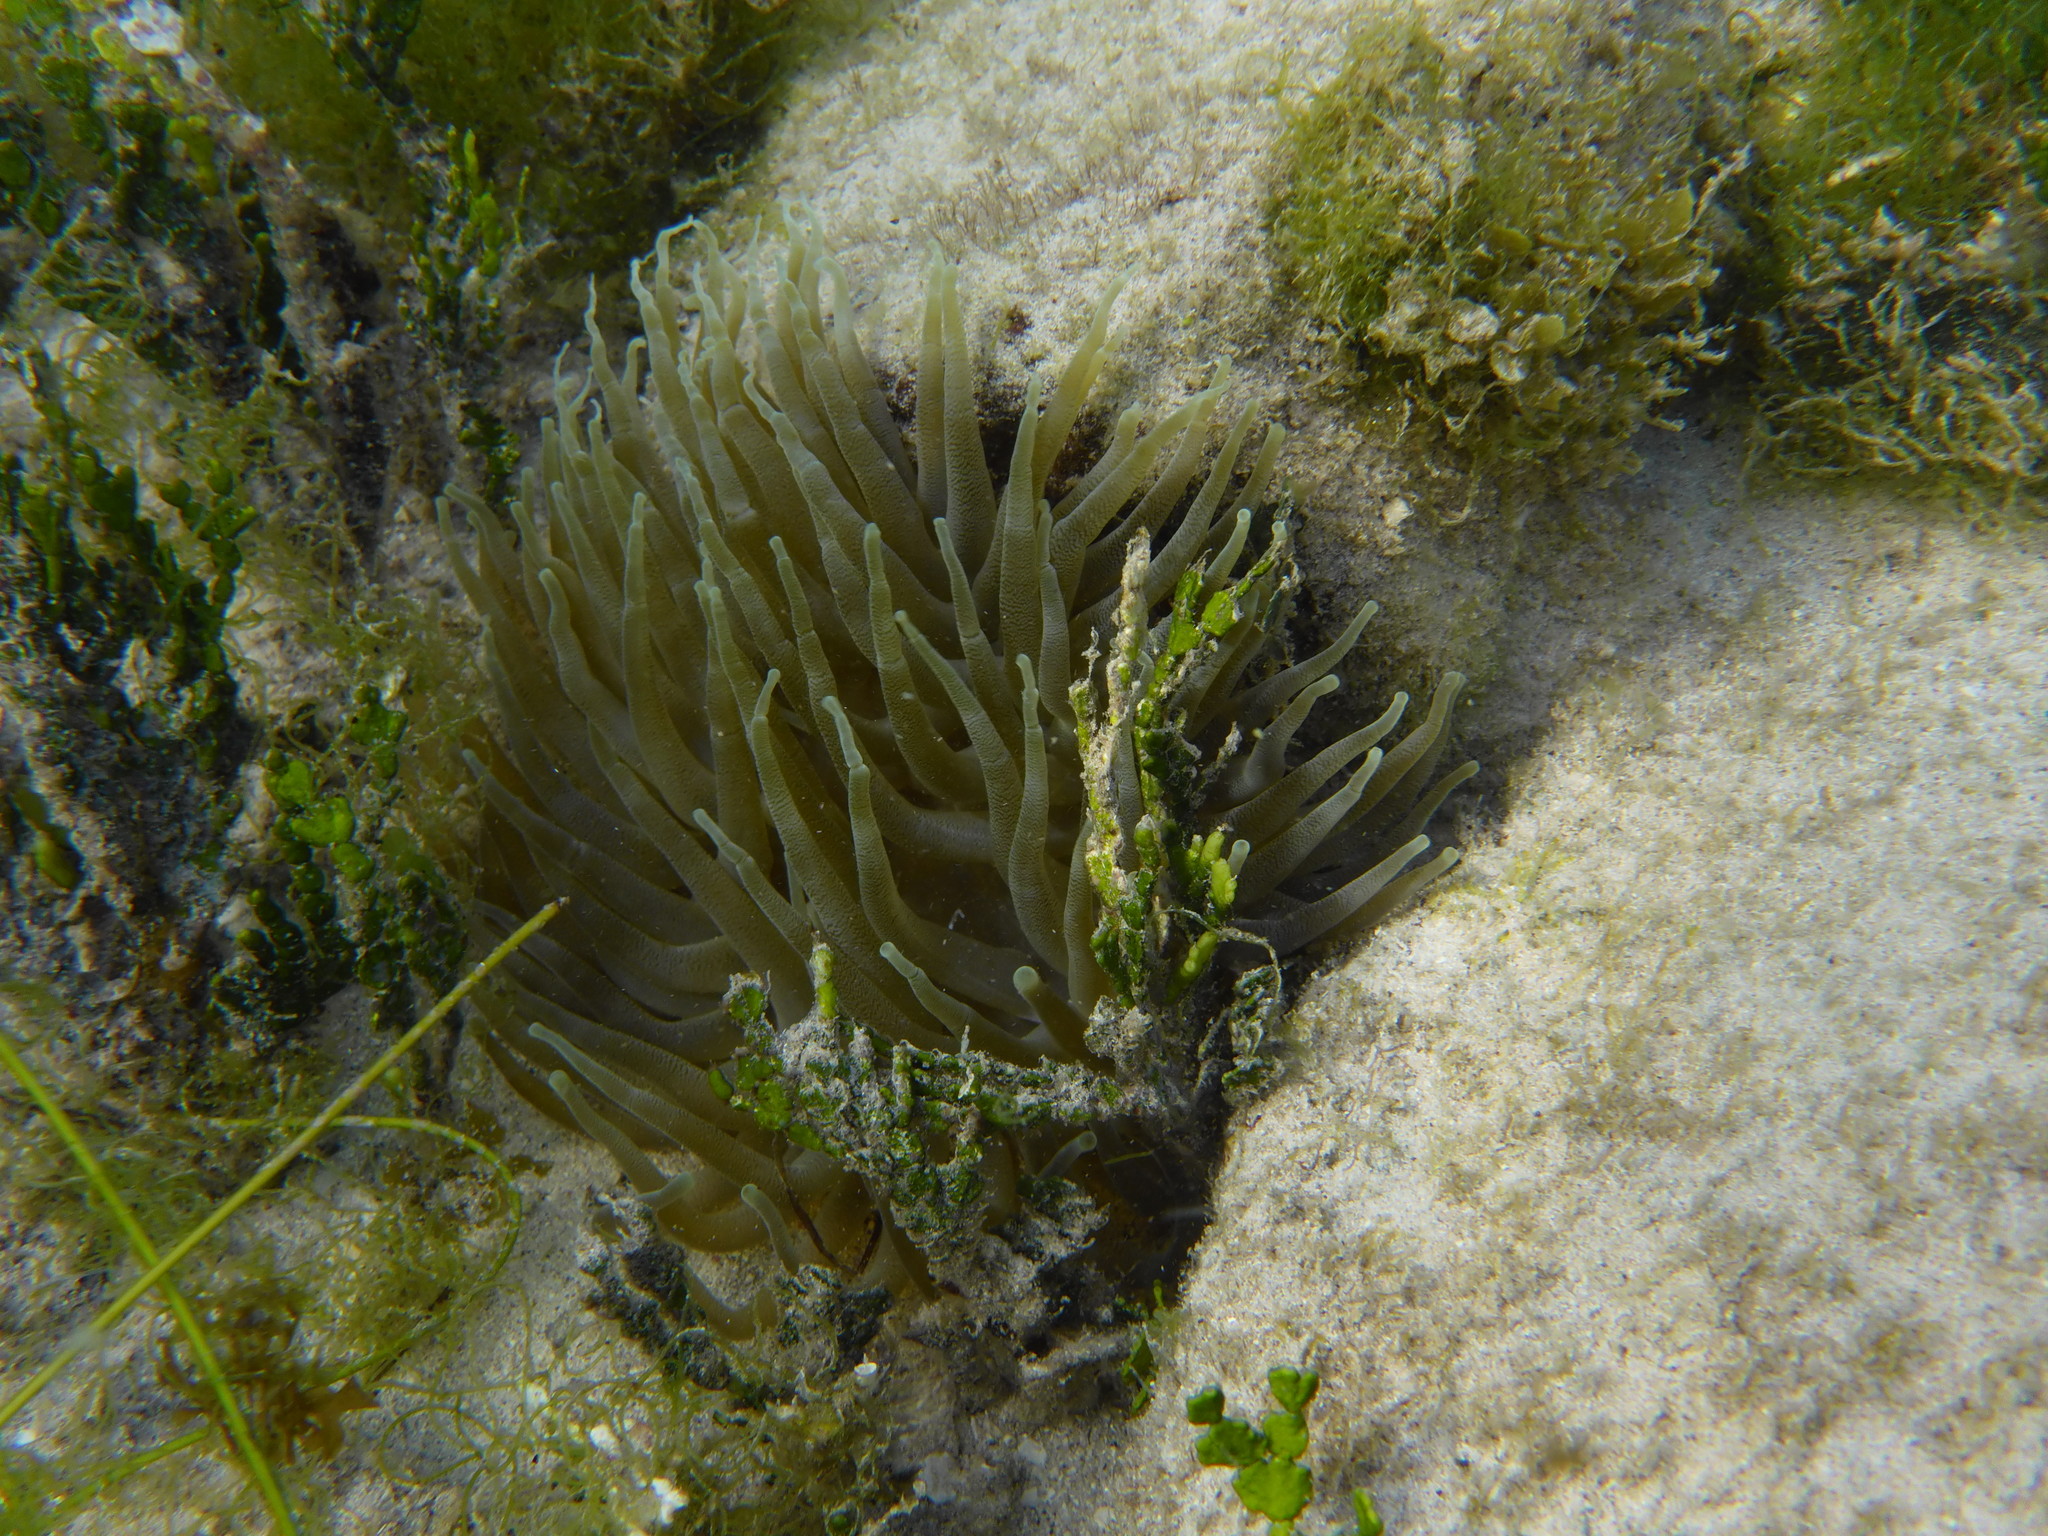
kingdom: Animalia
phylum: Cnidaria
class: Anthozoa
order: Actiniaria
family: Actiniidae
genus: Condylactis
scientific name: Condylactis gigantea
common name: Giant caribbean anemone
